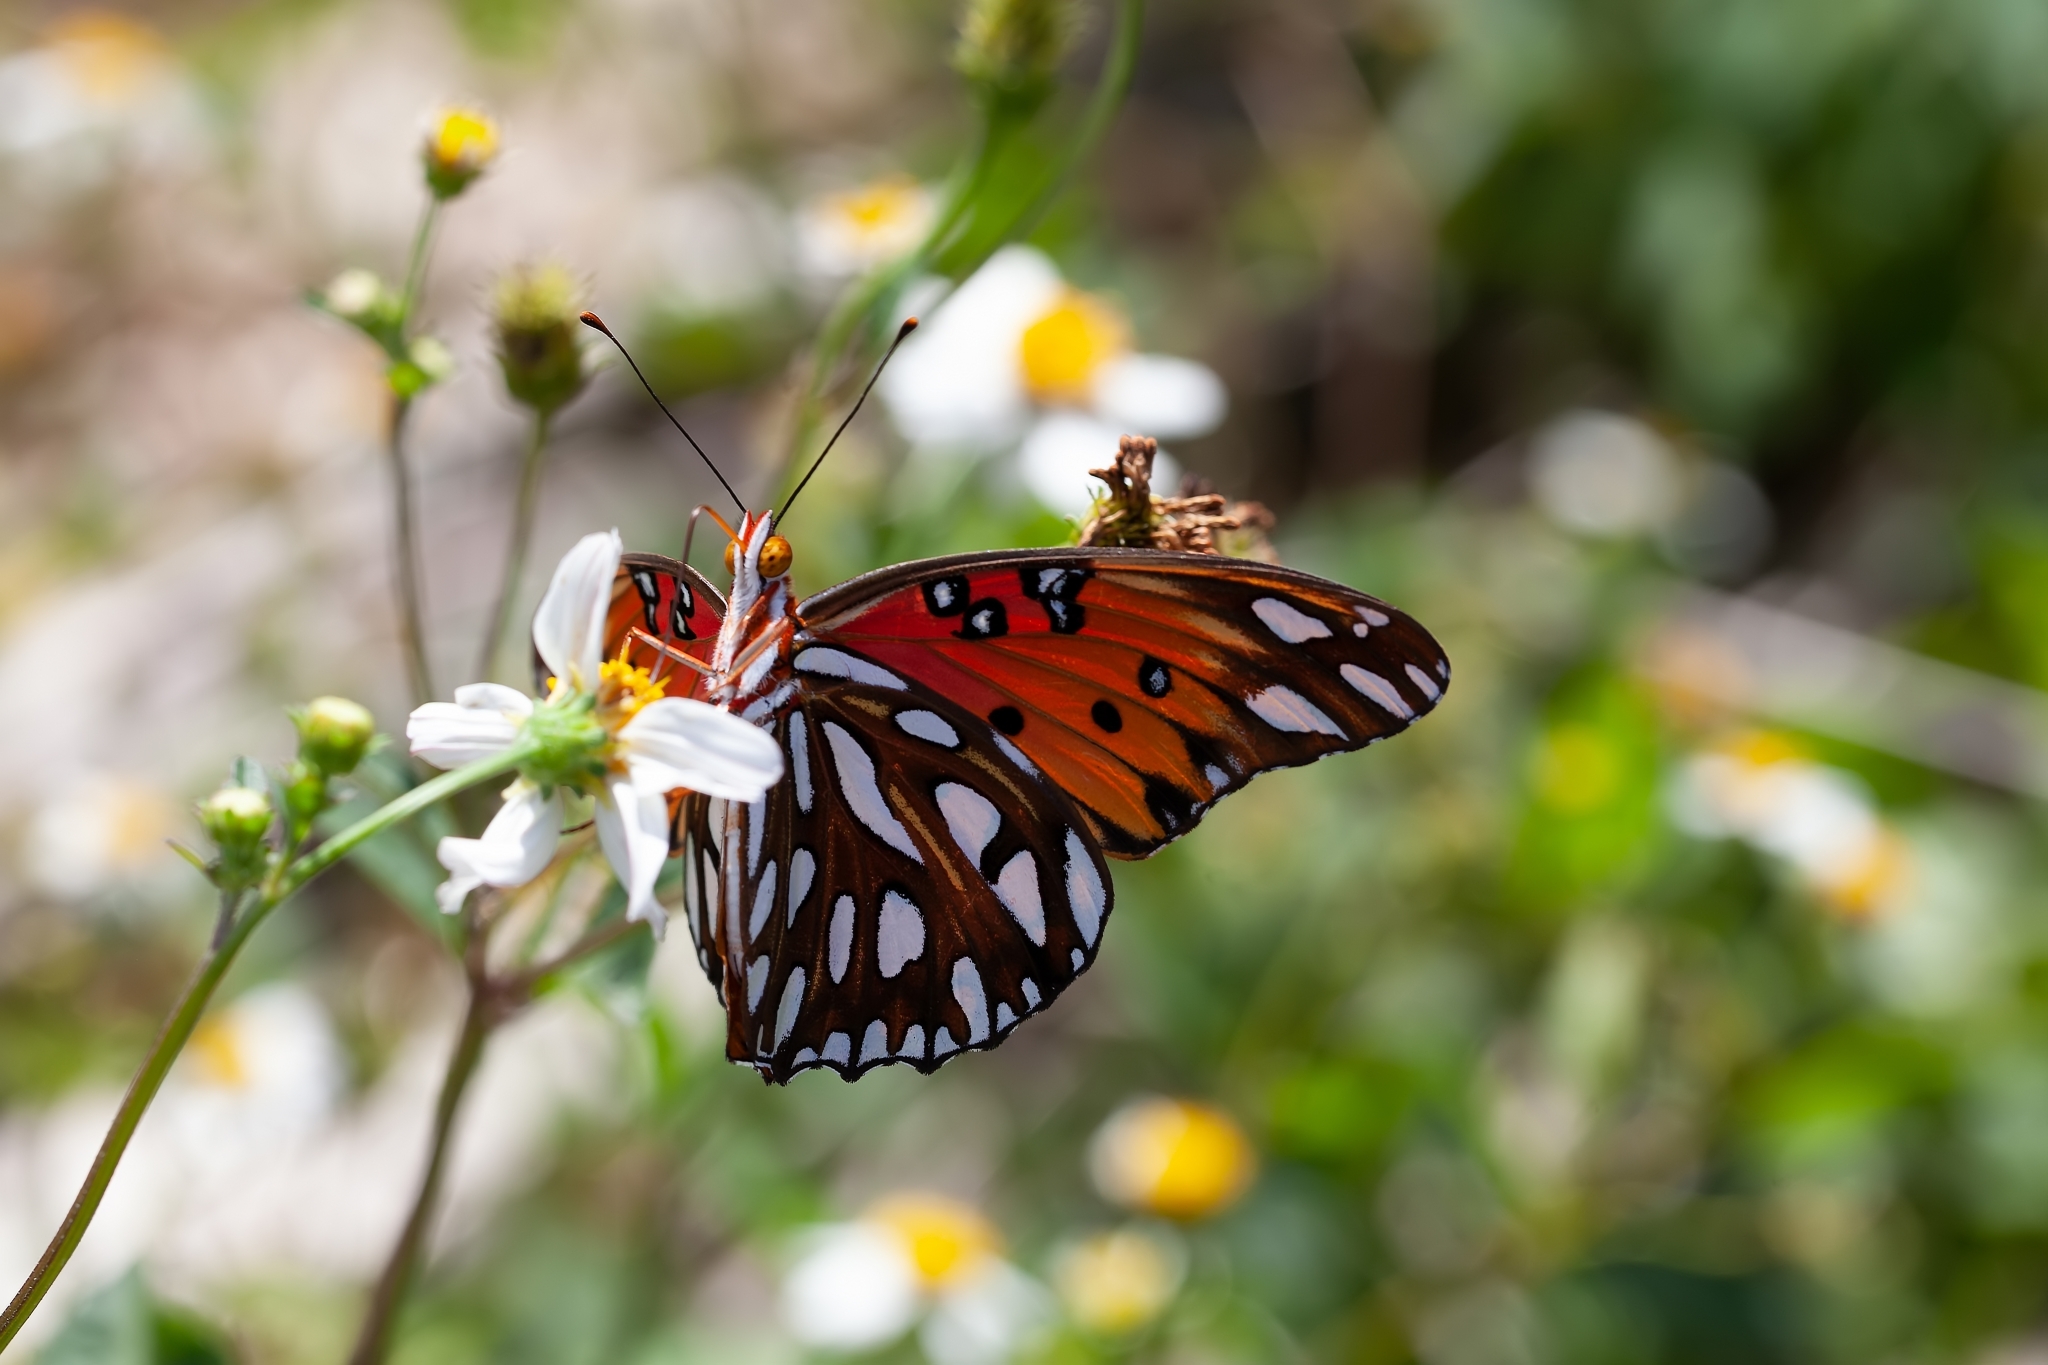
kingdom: Animalia
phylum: Arthropoda
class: Insecta
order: Lepidoptera
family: Nymphalidae
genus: Dione
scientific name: Dione vanillae
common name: Gulf fritillary
